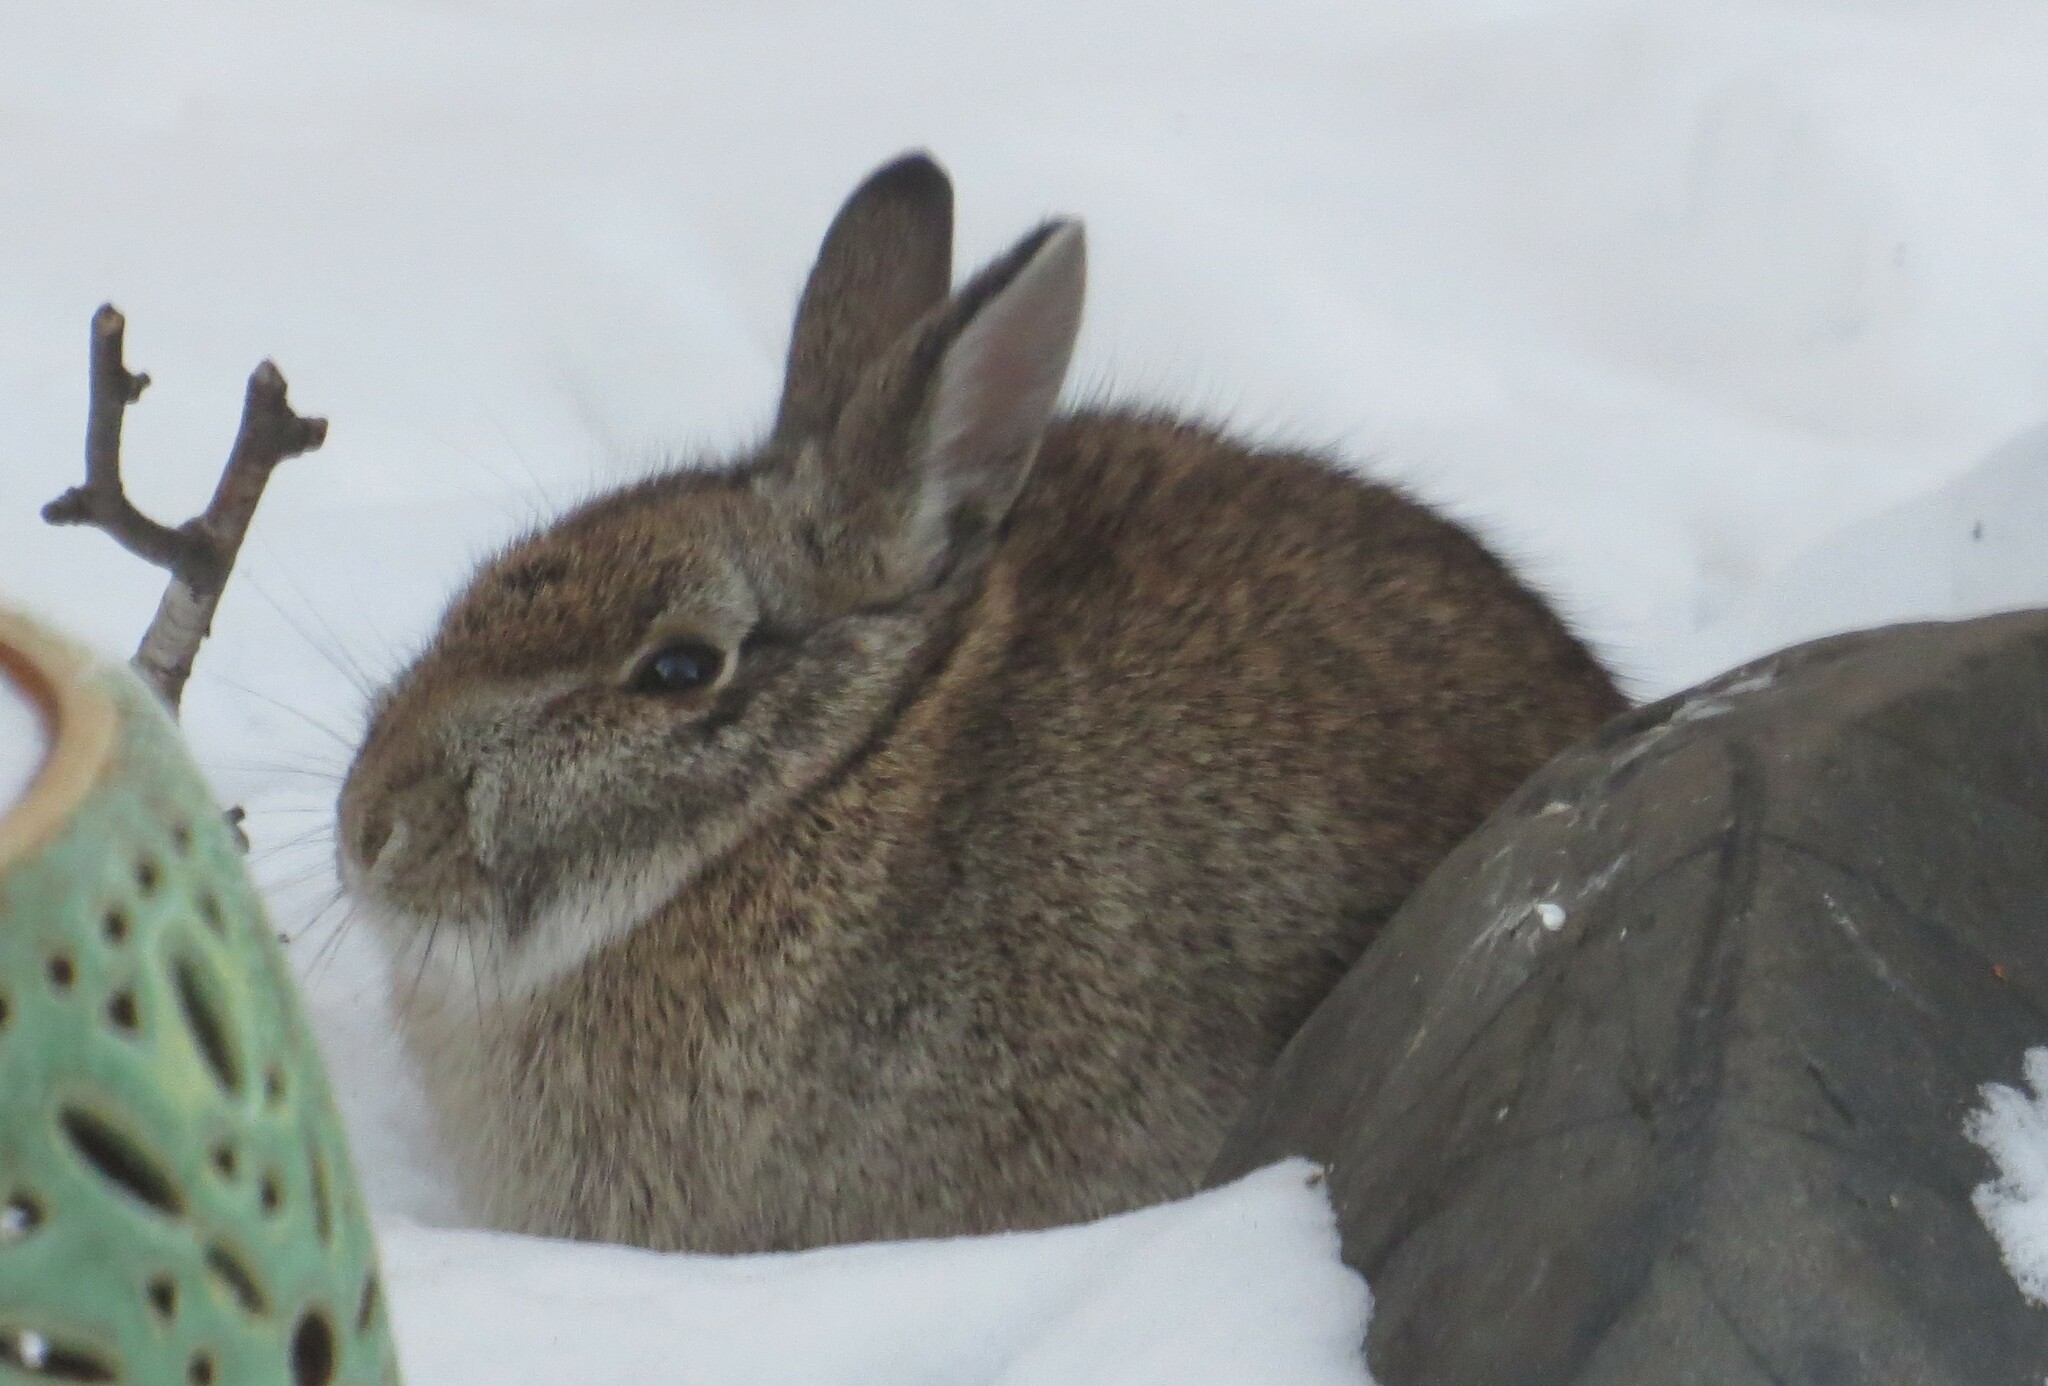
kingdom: Animalia
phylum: Chordata
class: Mammalia
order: Lagomorpha
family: Leporidae
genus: Sylvilagus
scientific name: Sylvilagus floridanus
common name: Eastern cottontail
